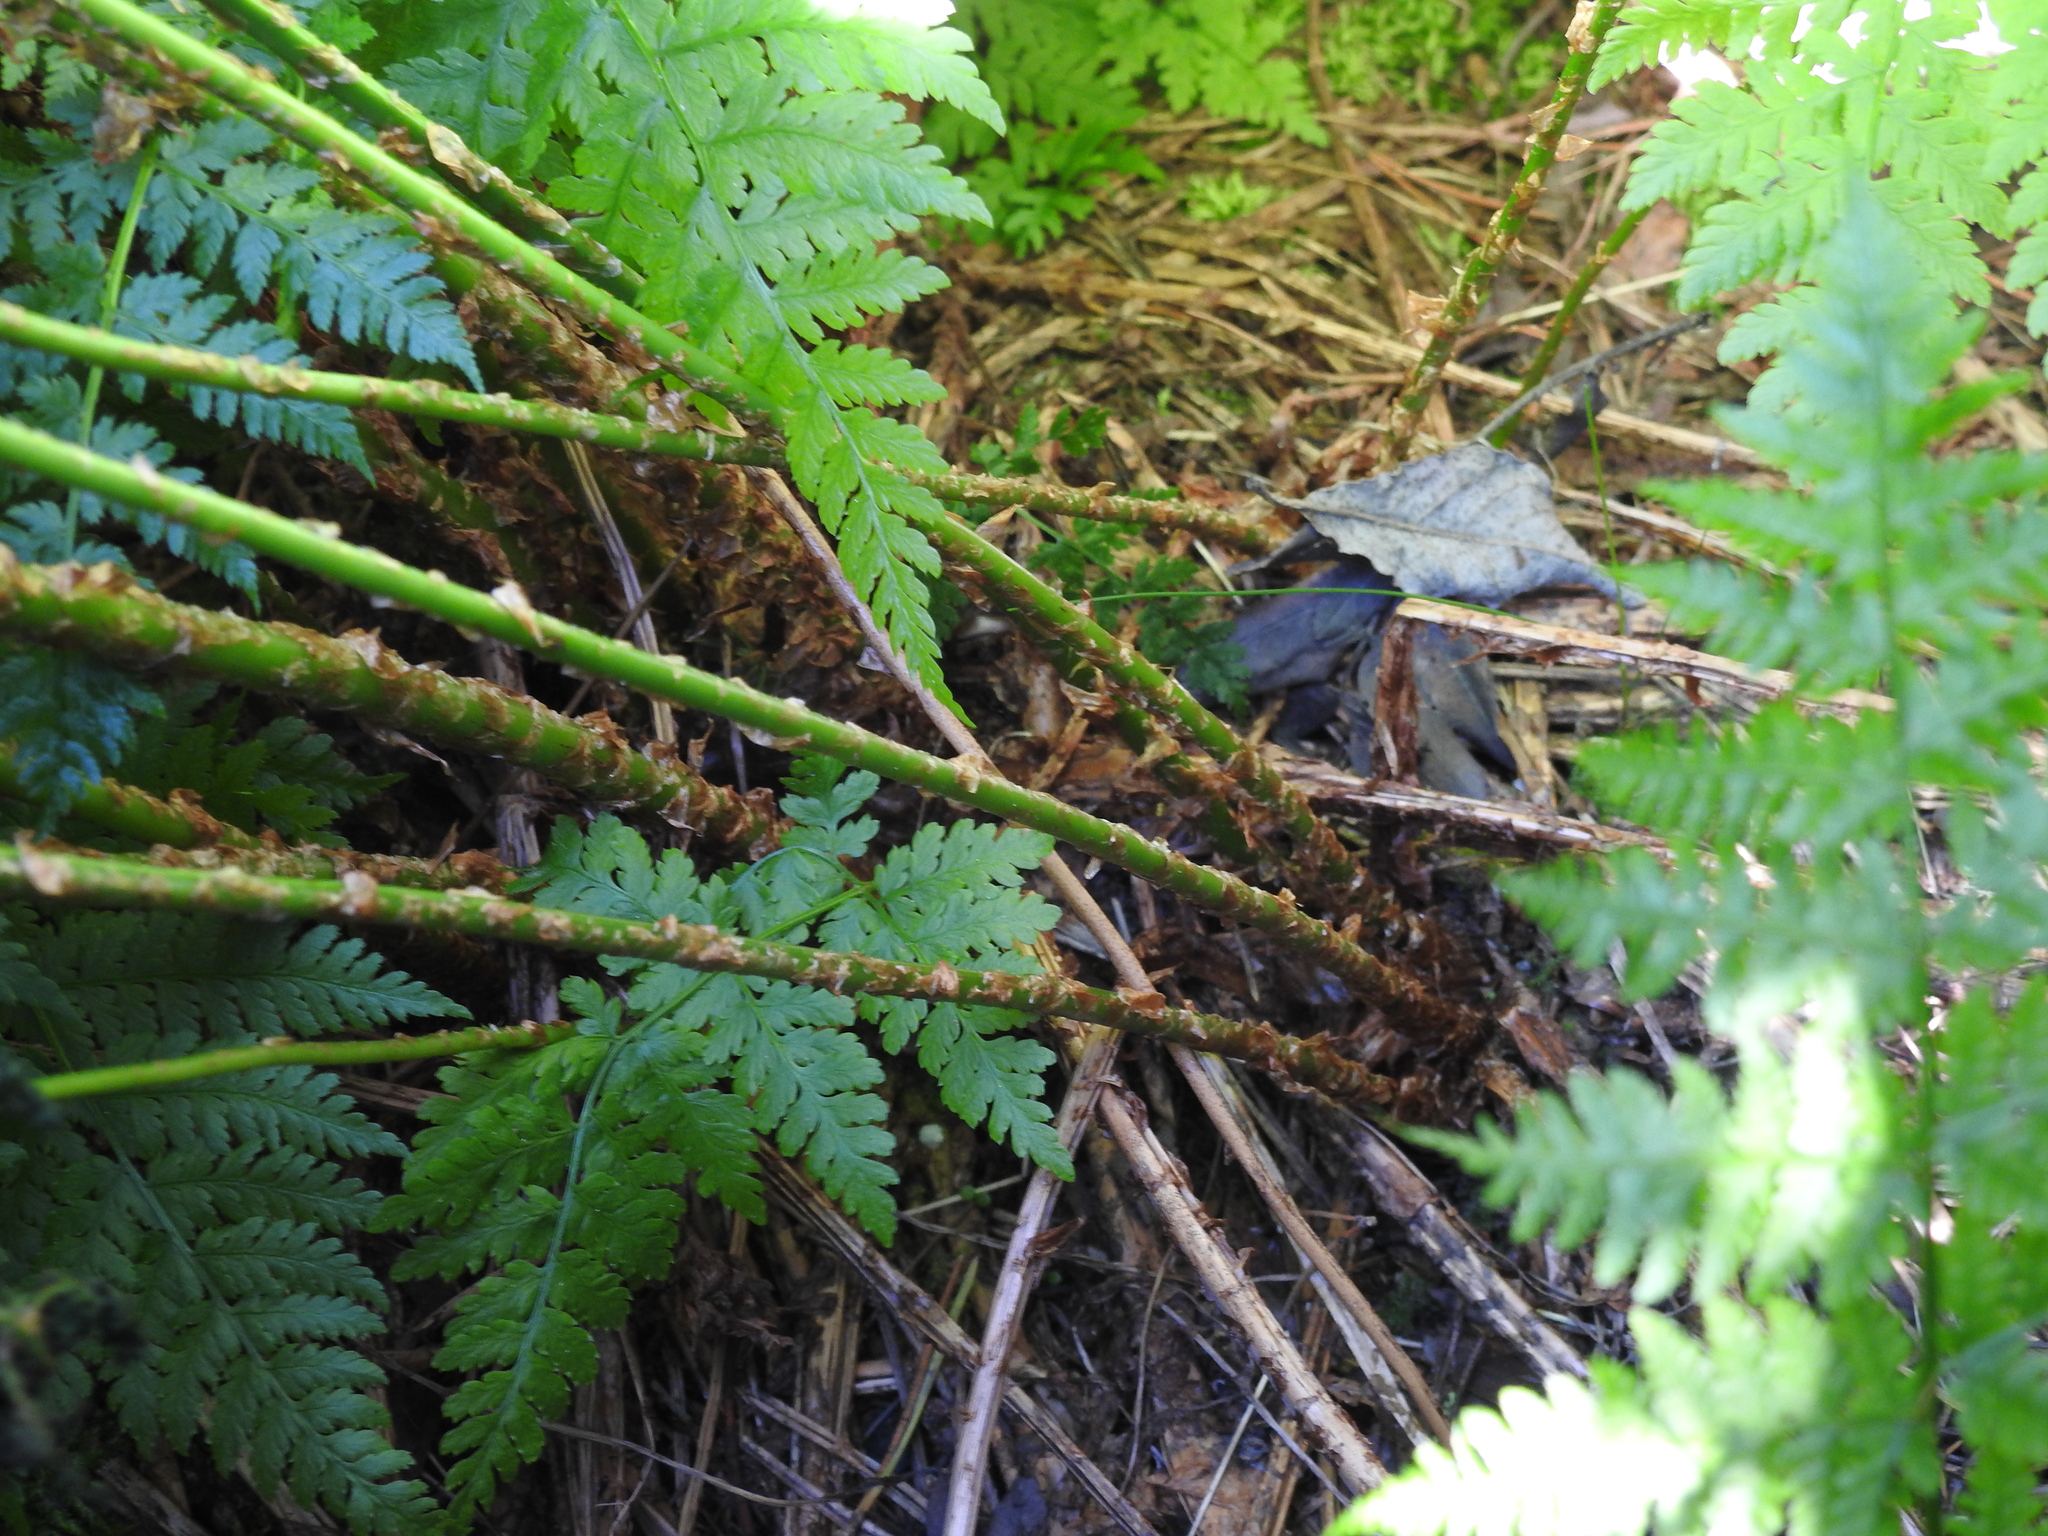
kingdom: Plantae
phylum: Tracheophyta
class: Polypodiopsida
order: Polypodiales
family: Dryopteridaceae
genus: Dryopteris
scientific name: Dryopteris expansa
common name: Northern buckler fern
